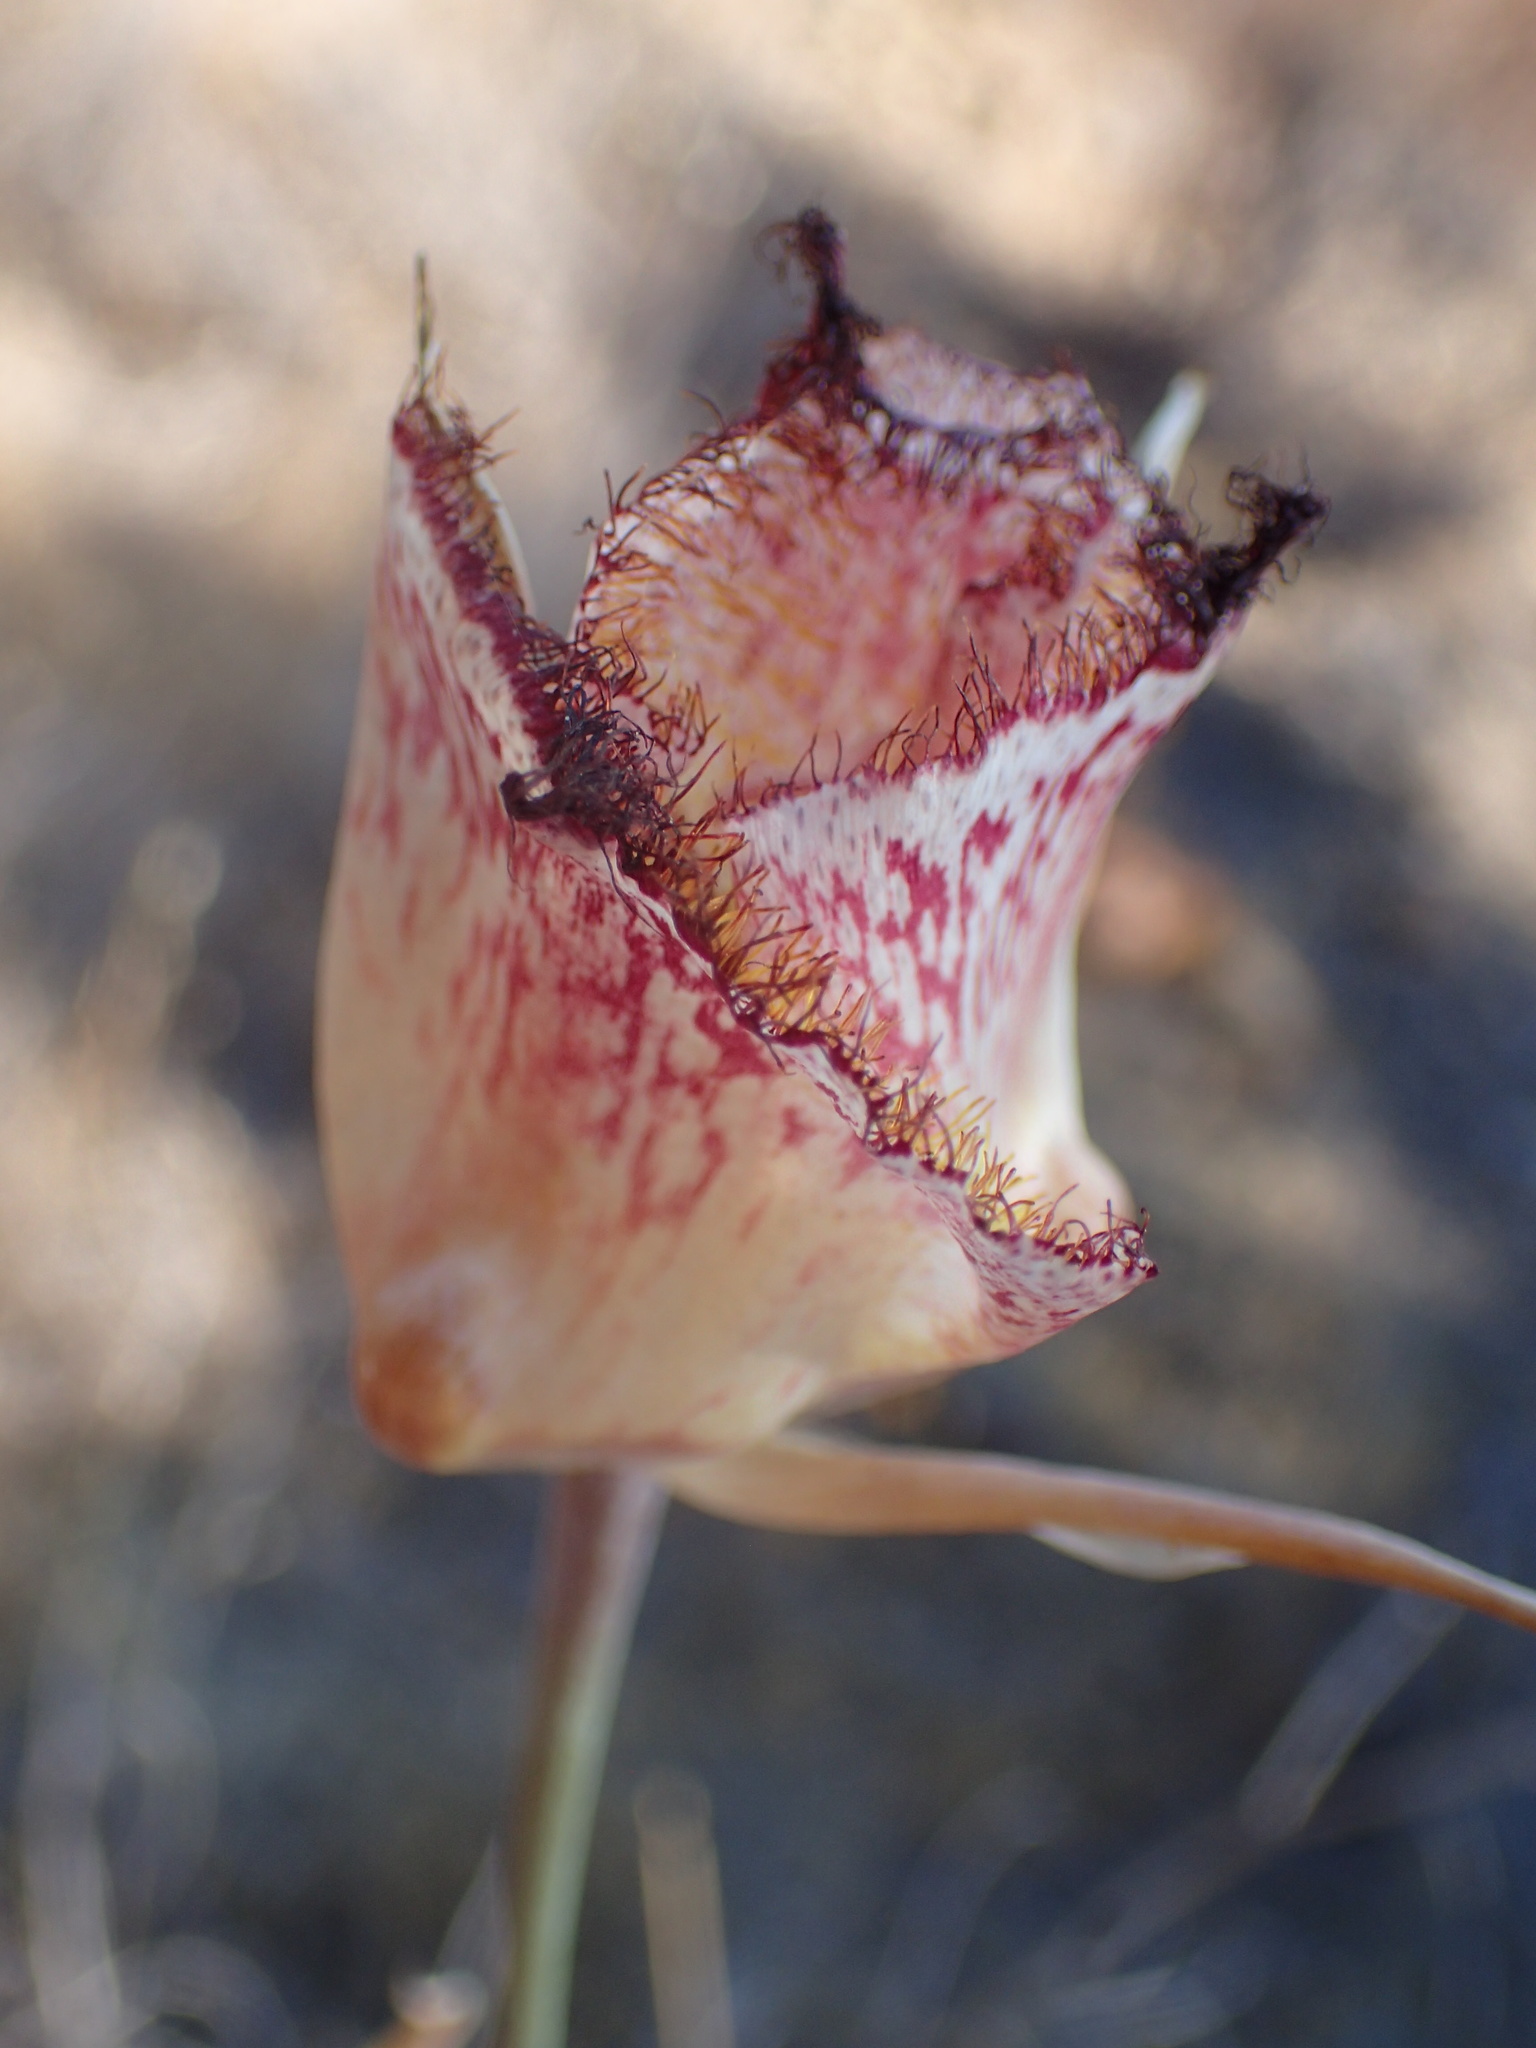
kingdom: Plantae
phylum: Tracheophyta
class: Liliopsida
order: Liliales
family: Liliaceae
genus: Calochortus
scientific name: Calochortus fimbriatus
